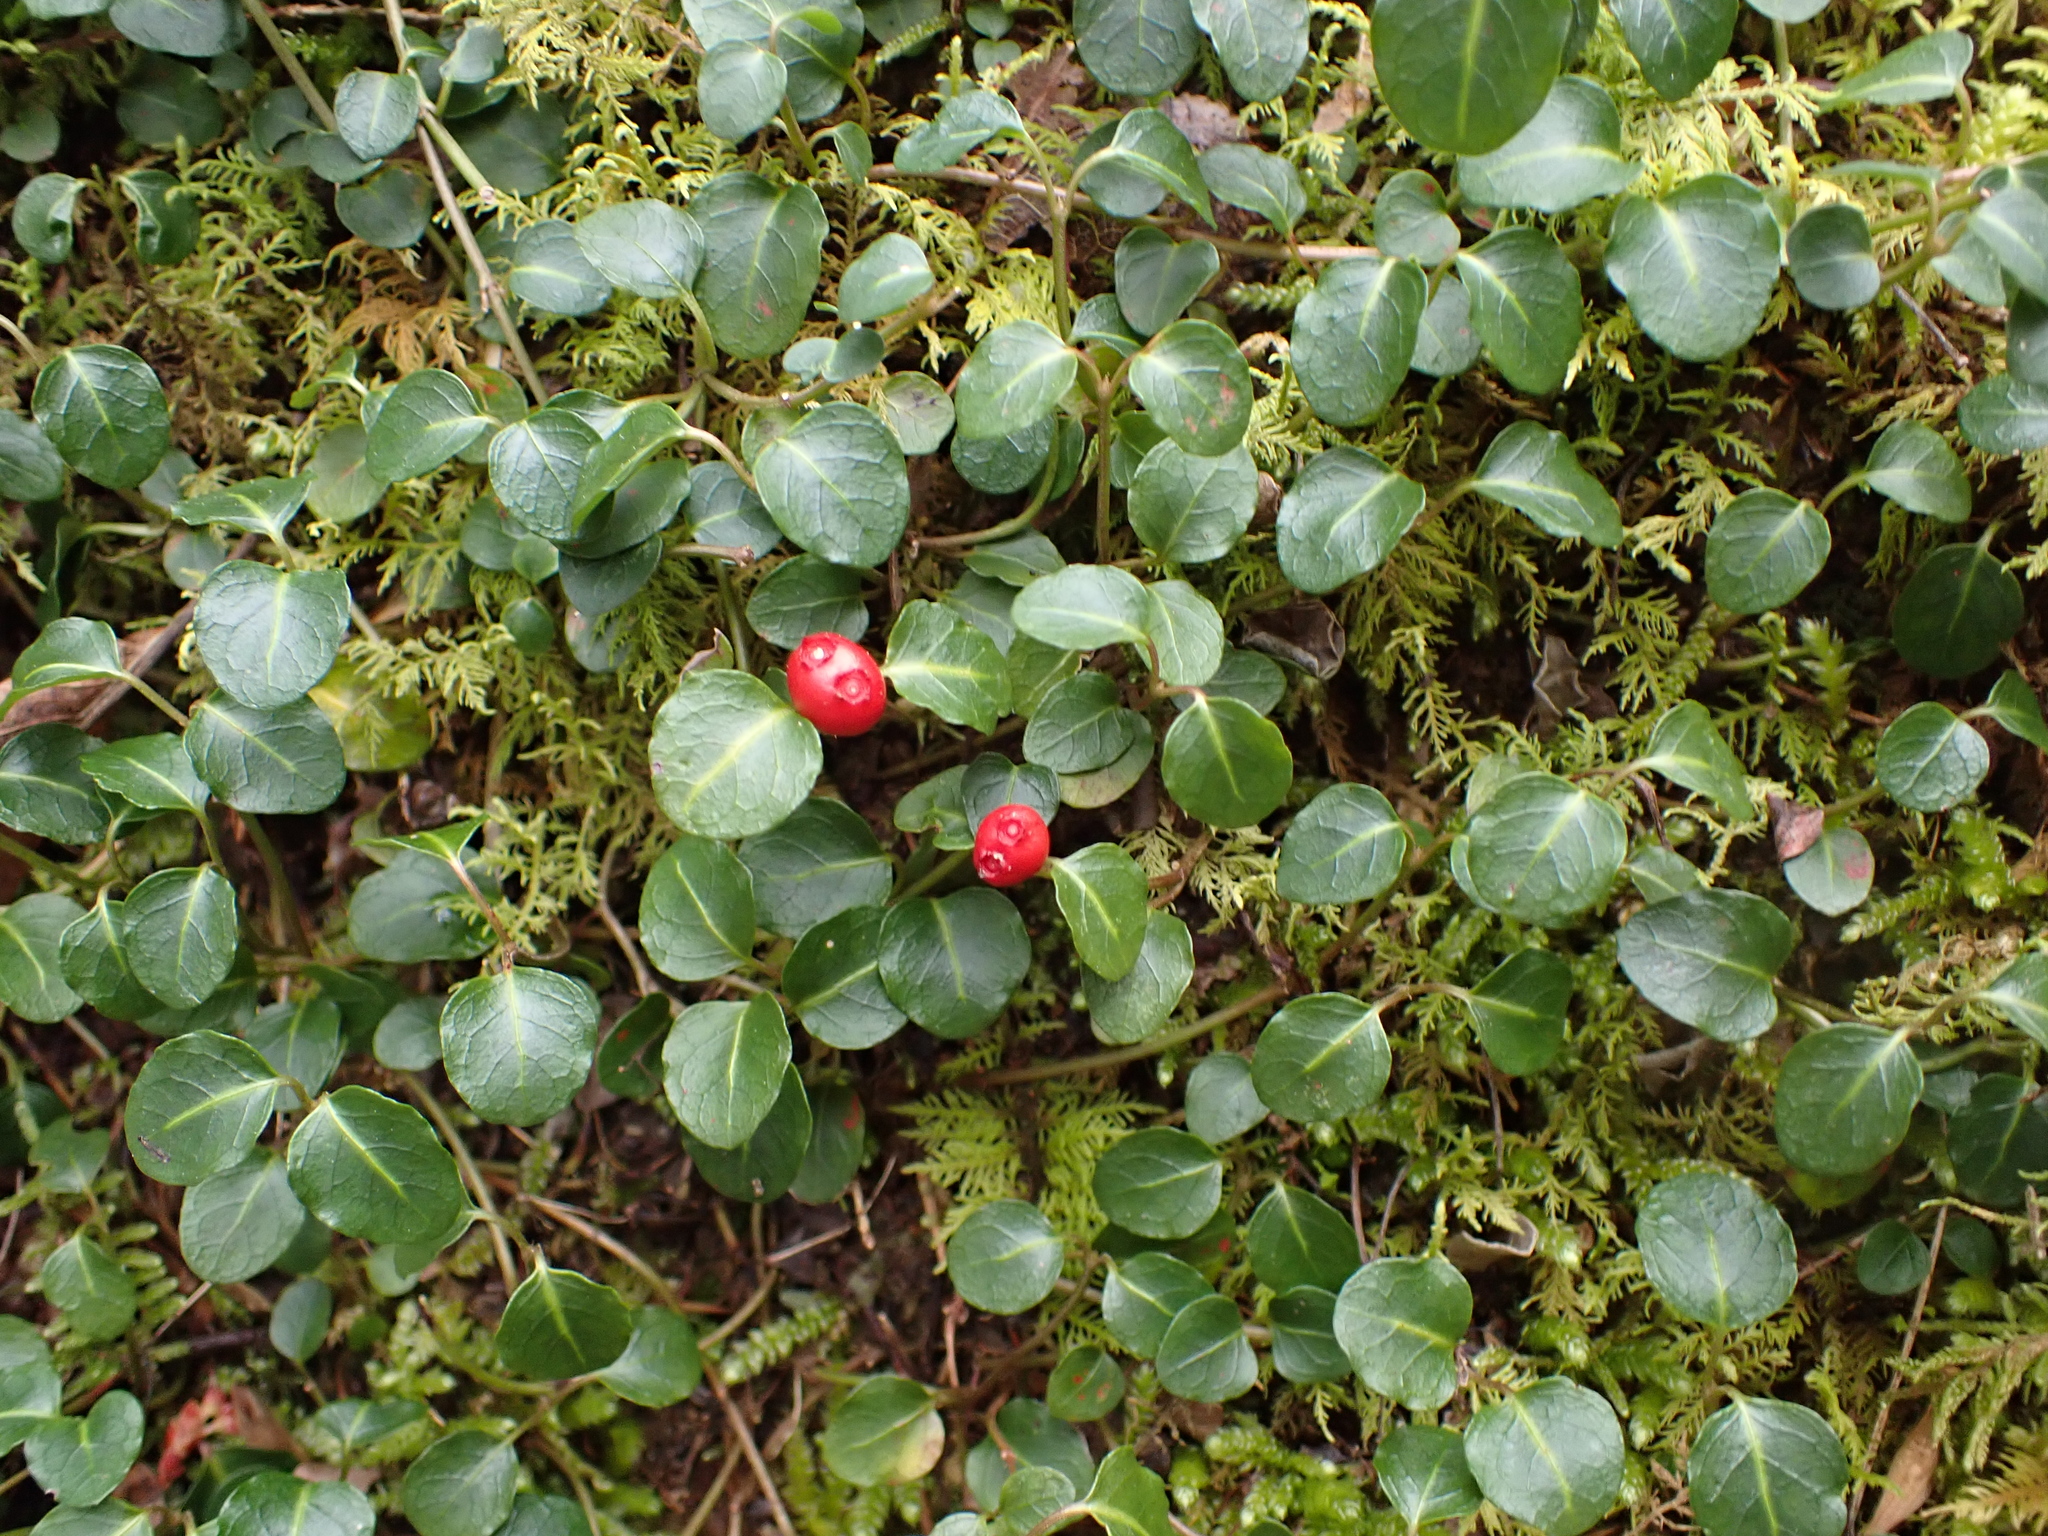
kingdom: Plantae
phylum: Tracheophyta
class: Magnoliopsida
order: Gentianales
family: Rubiaceae
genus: Mitchella
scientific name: Mitchella repens
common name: Partridge-berry
